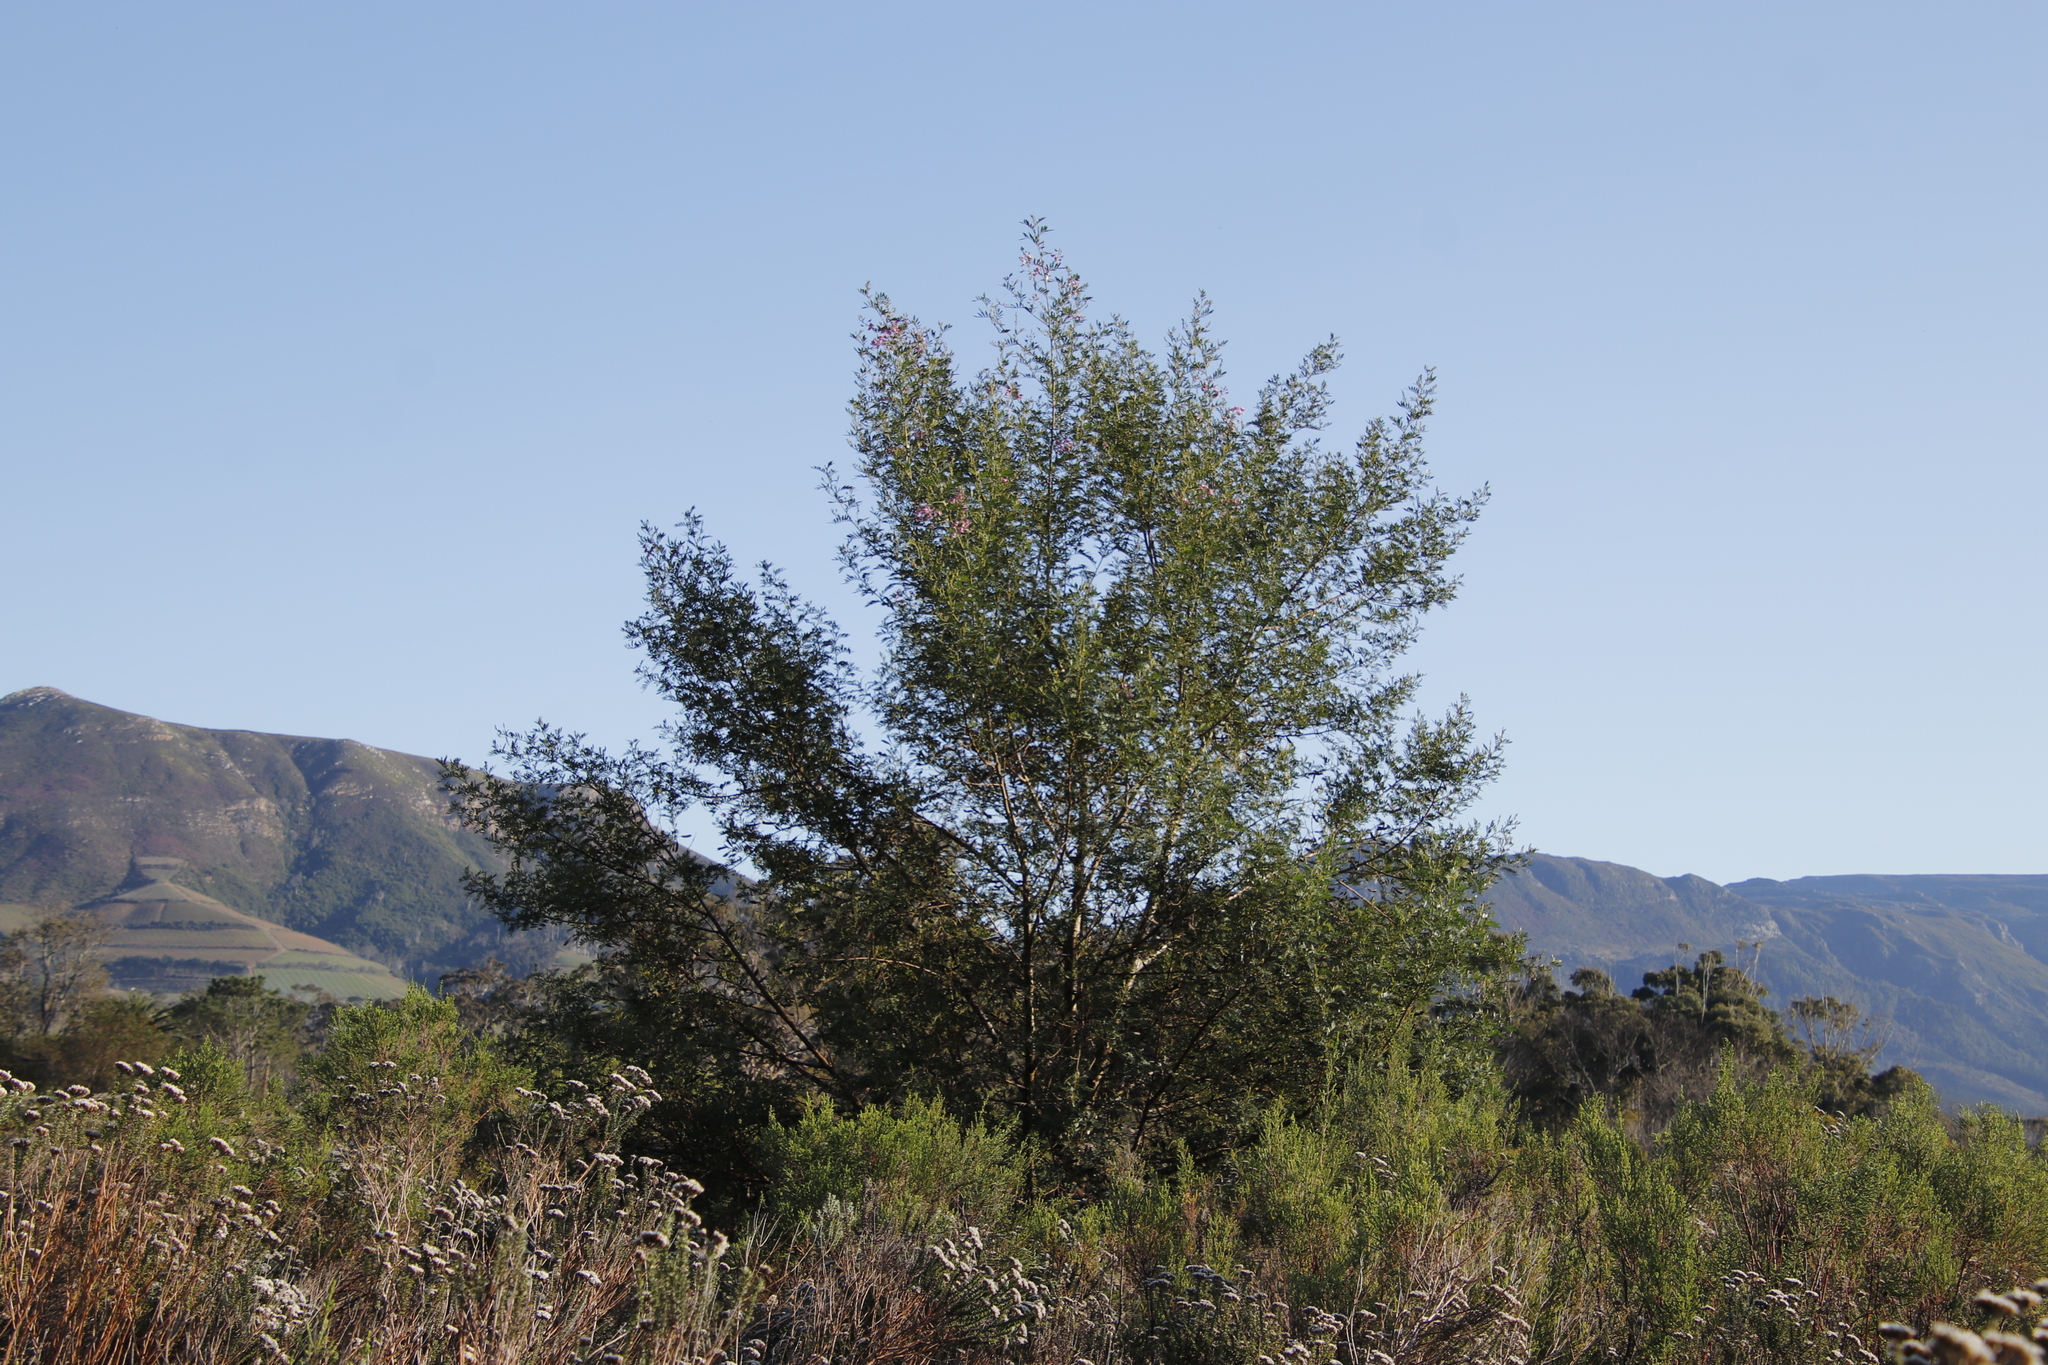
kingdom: Plantae
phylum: Tracheophyta
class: Magnoliopsida
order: Fabales
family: Fabaceae
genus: Virgilia
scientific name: Virgilia oroboides
